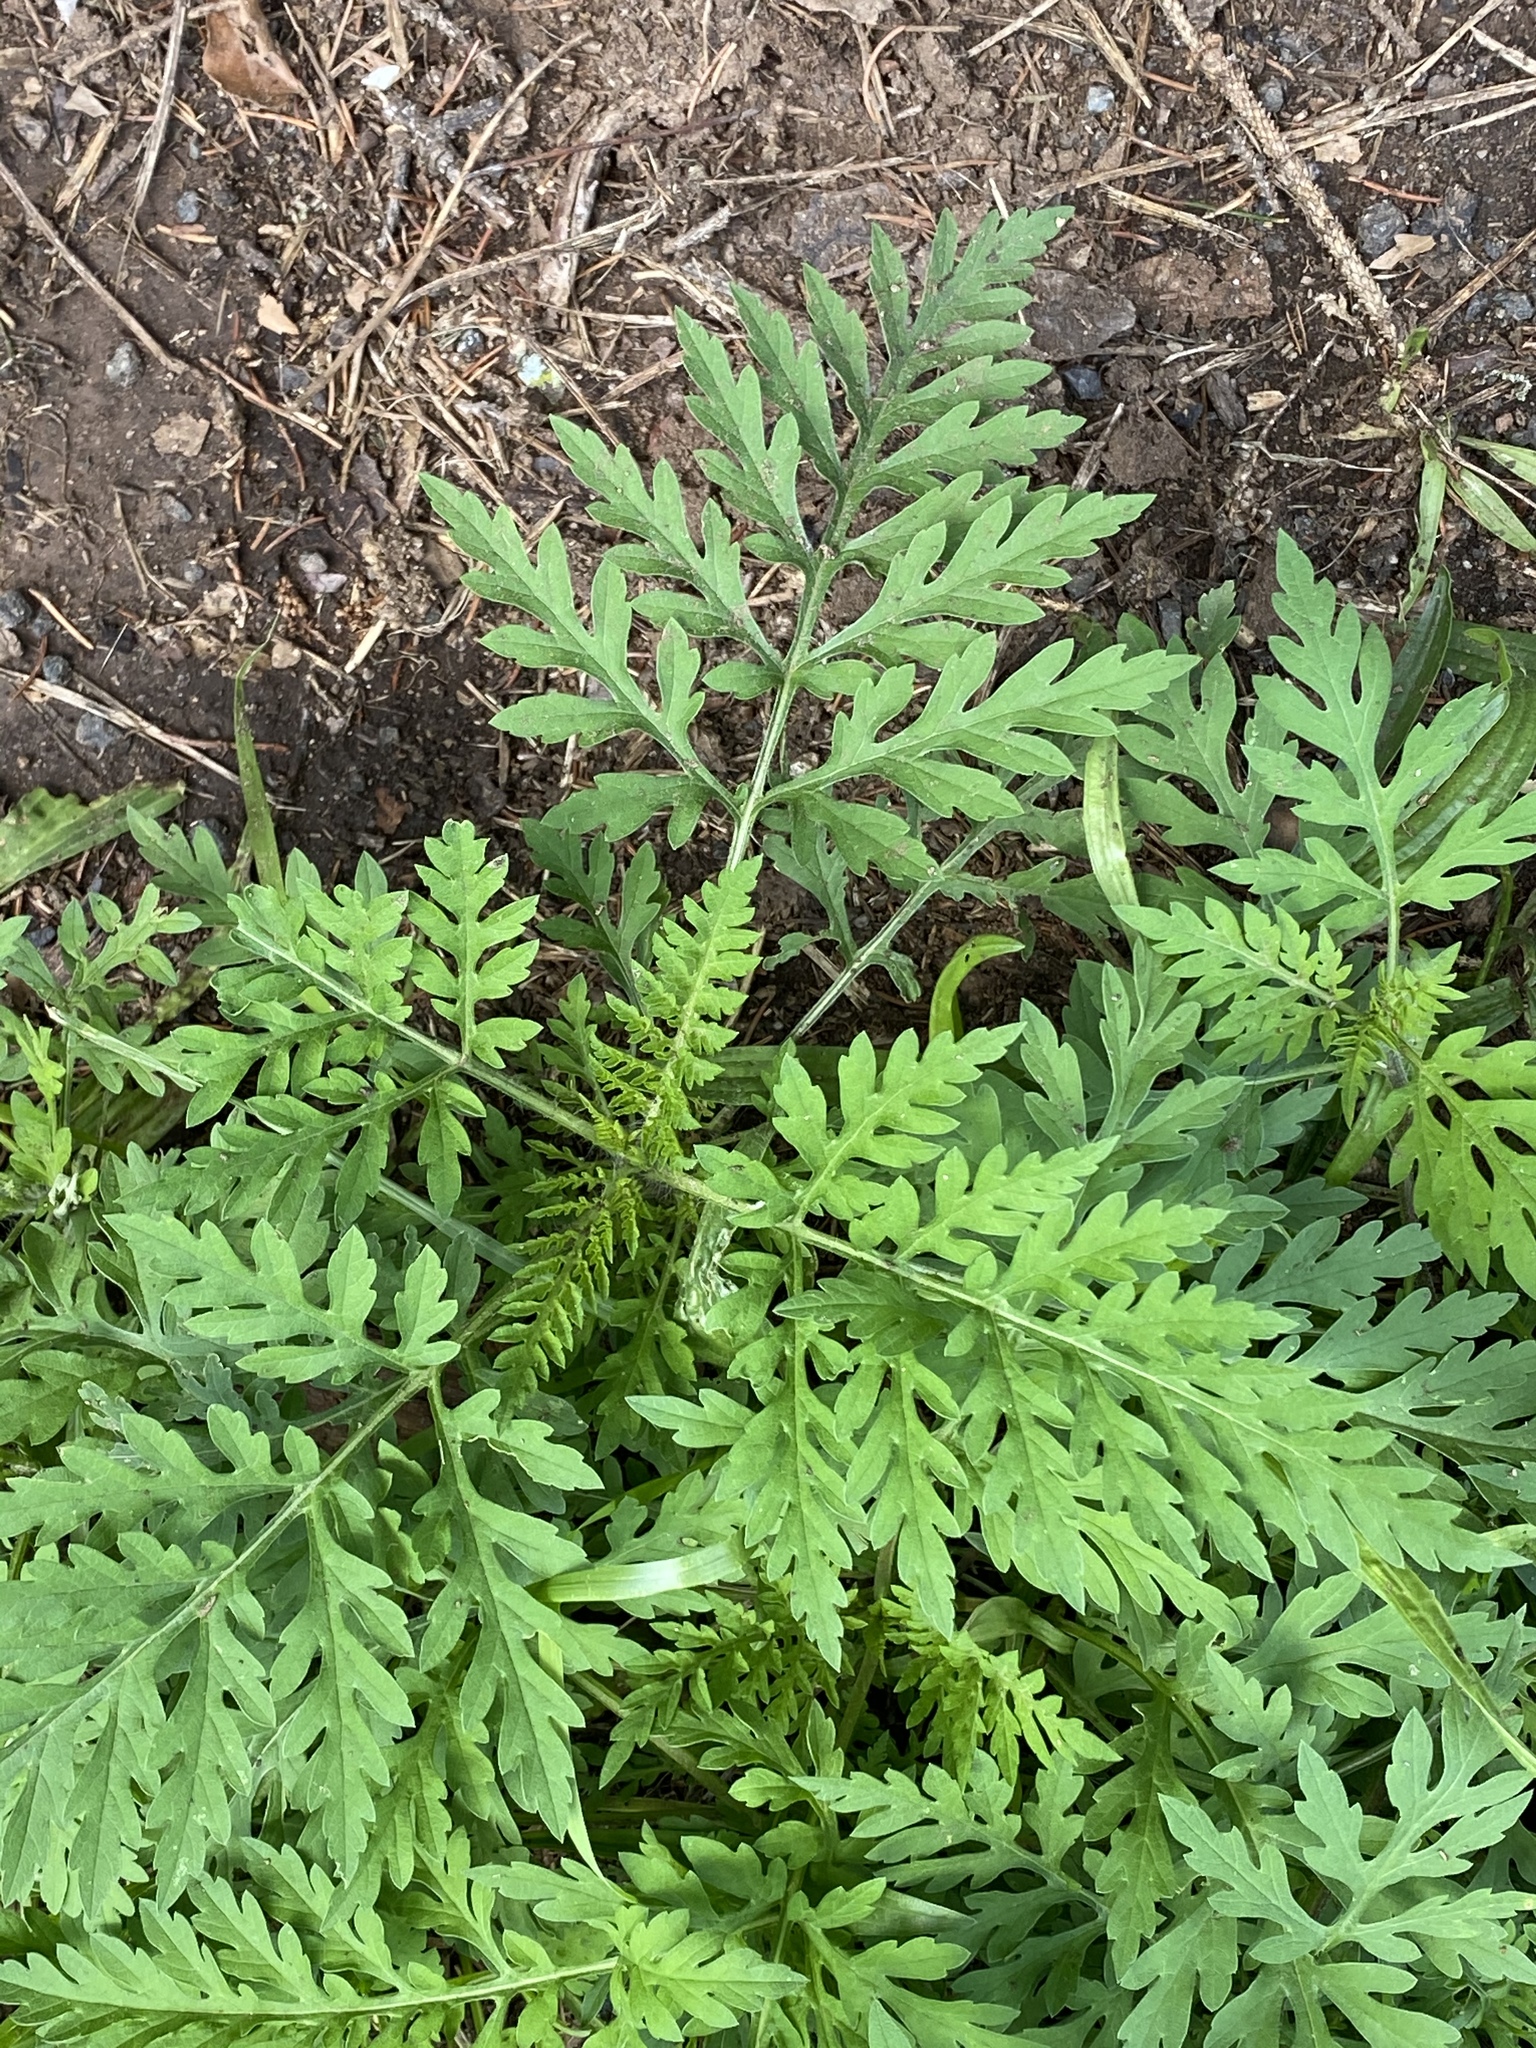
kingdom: Plantae
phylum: Tracheophyta
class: Magnoliopsida
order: Asterales
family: Asteraceae
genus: Ambrosia
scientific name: Ambrosia artemisiifolia
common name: Annual ragweed
